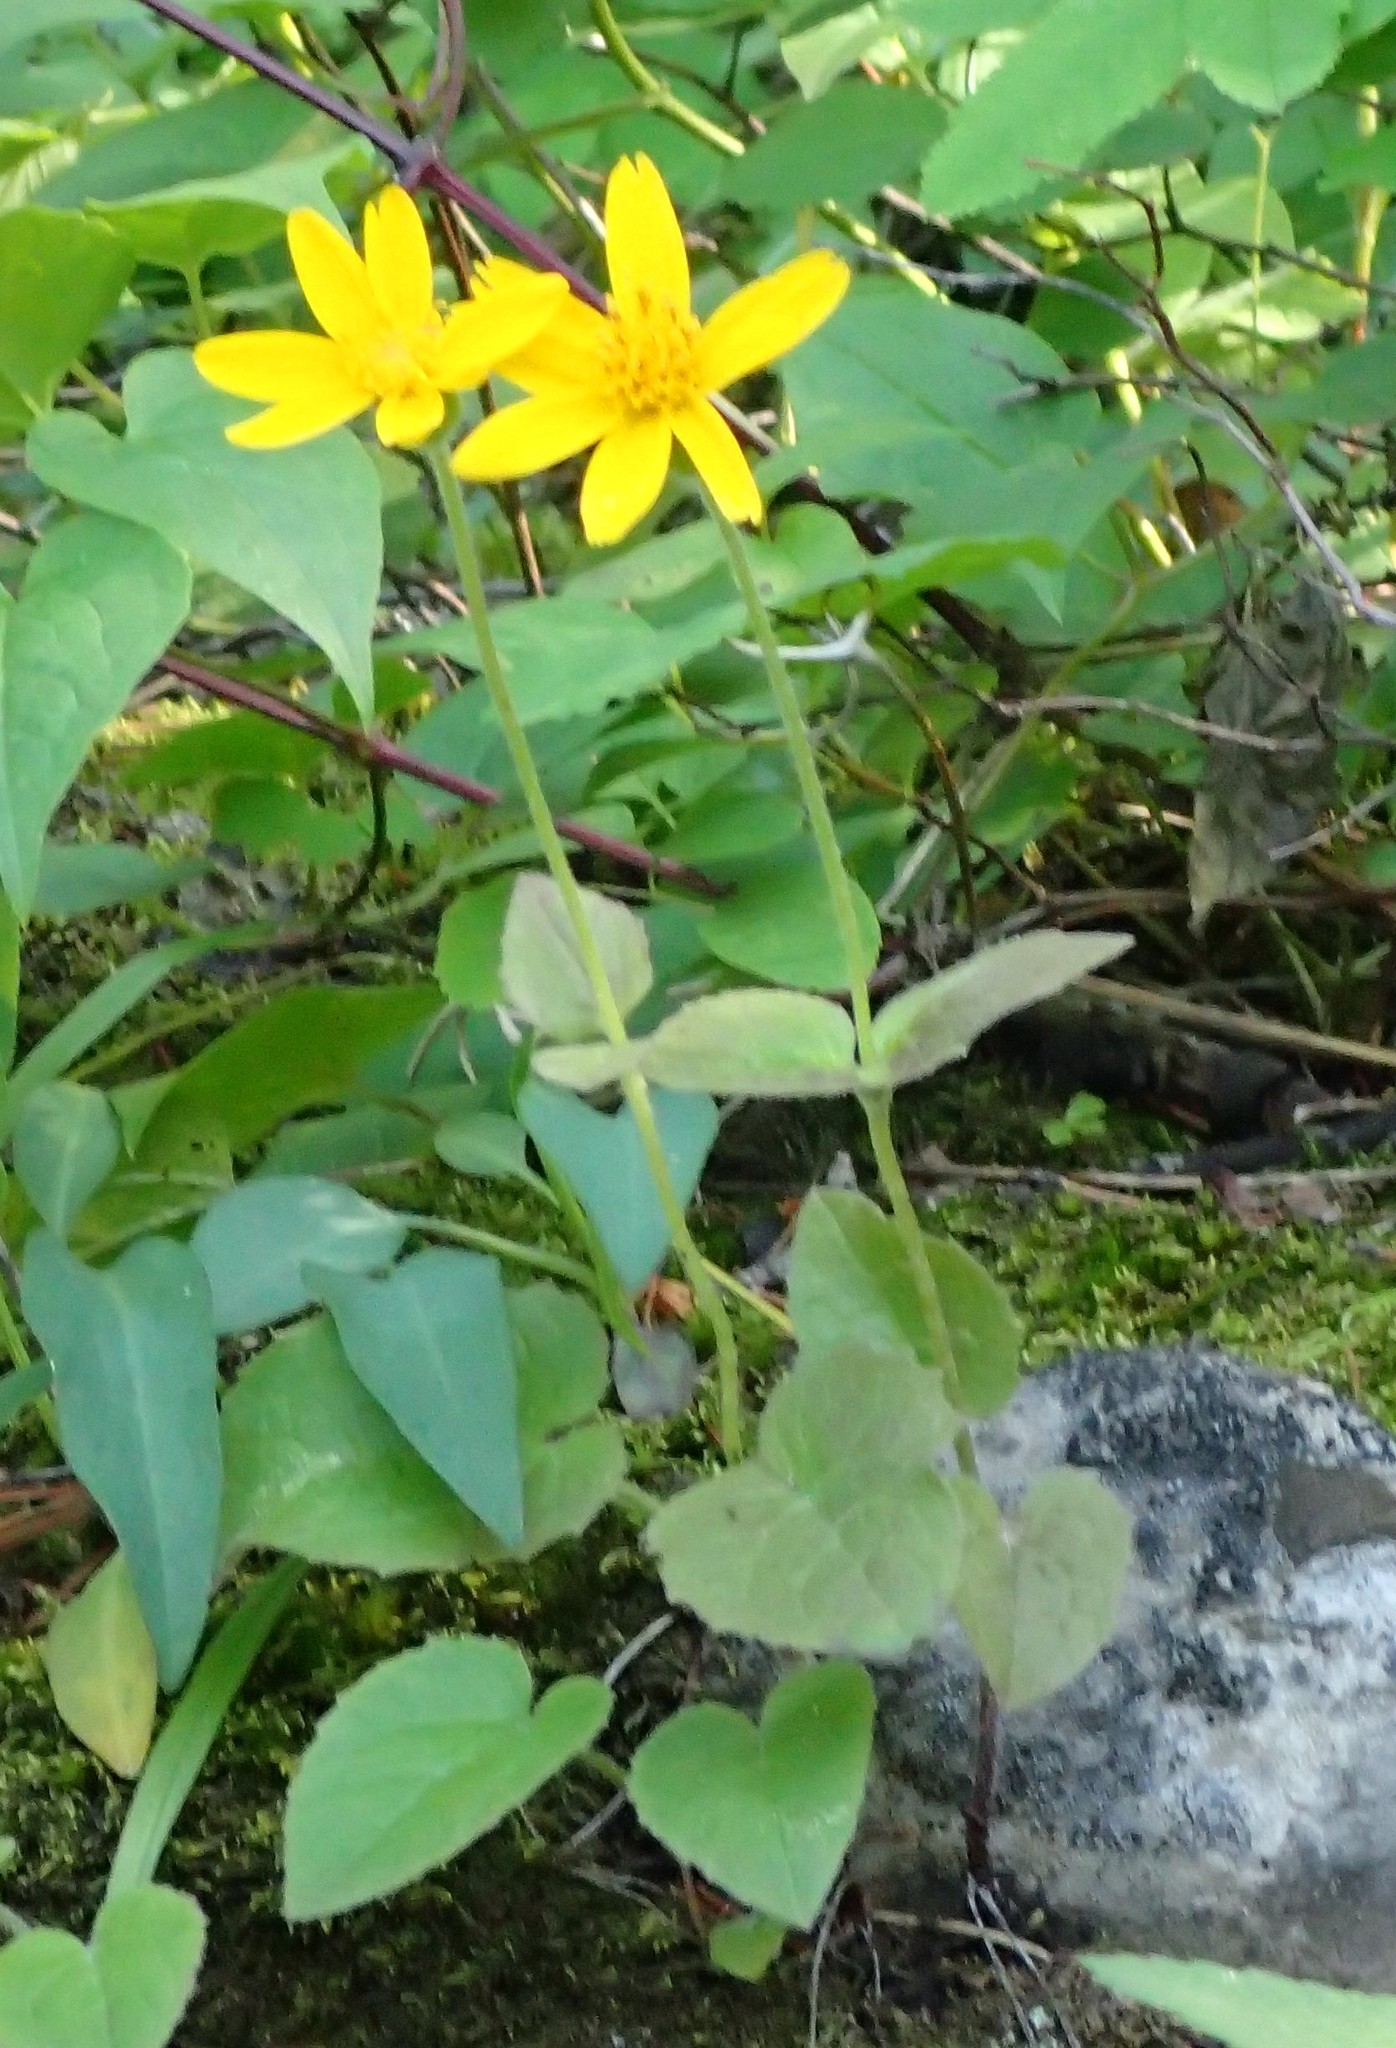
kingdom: Plantae
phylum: Tracheophyta
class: Magnoliopsida
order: Asterales
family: Asteraceae
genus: Arnica
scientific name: Arnica cordifolia
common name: Heart-leaf arnica
